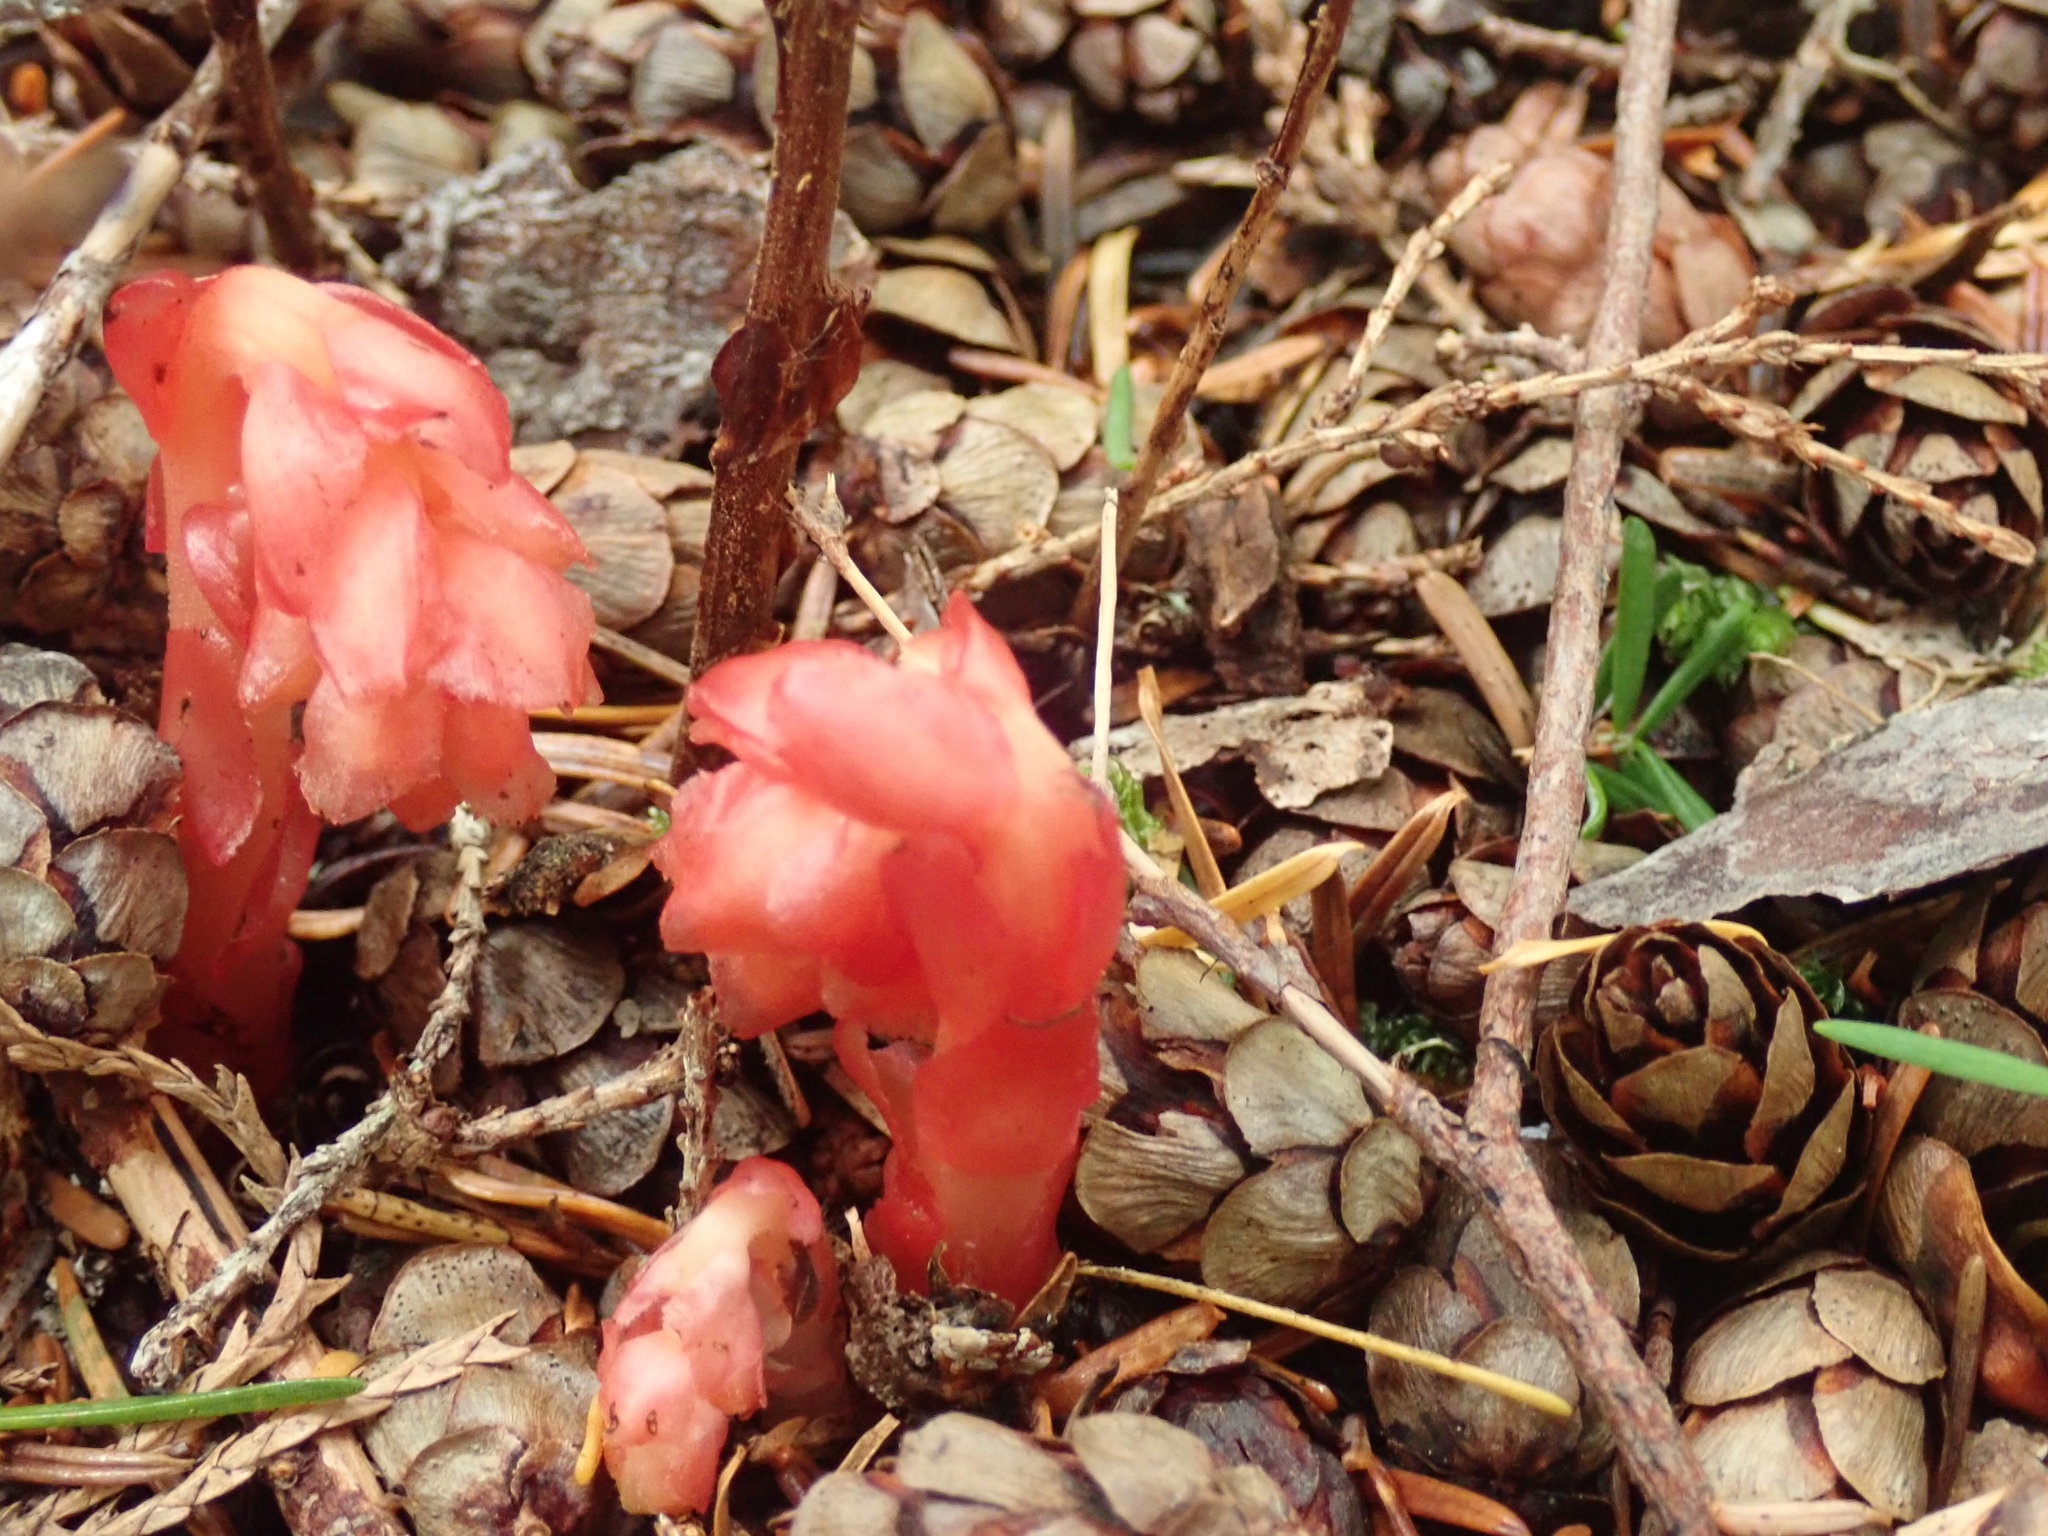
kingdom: Plantae
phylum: Tracheophyta
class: Magnoliopsida
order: Ericales
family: Ericaceae
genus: Hypopitys
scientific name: Hypopitys monotropa
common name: Yellow bird's-nest
